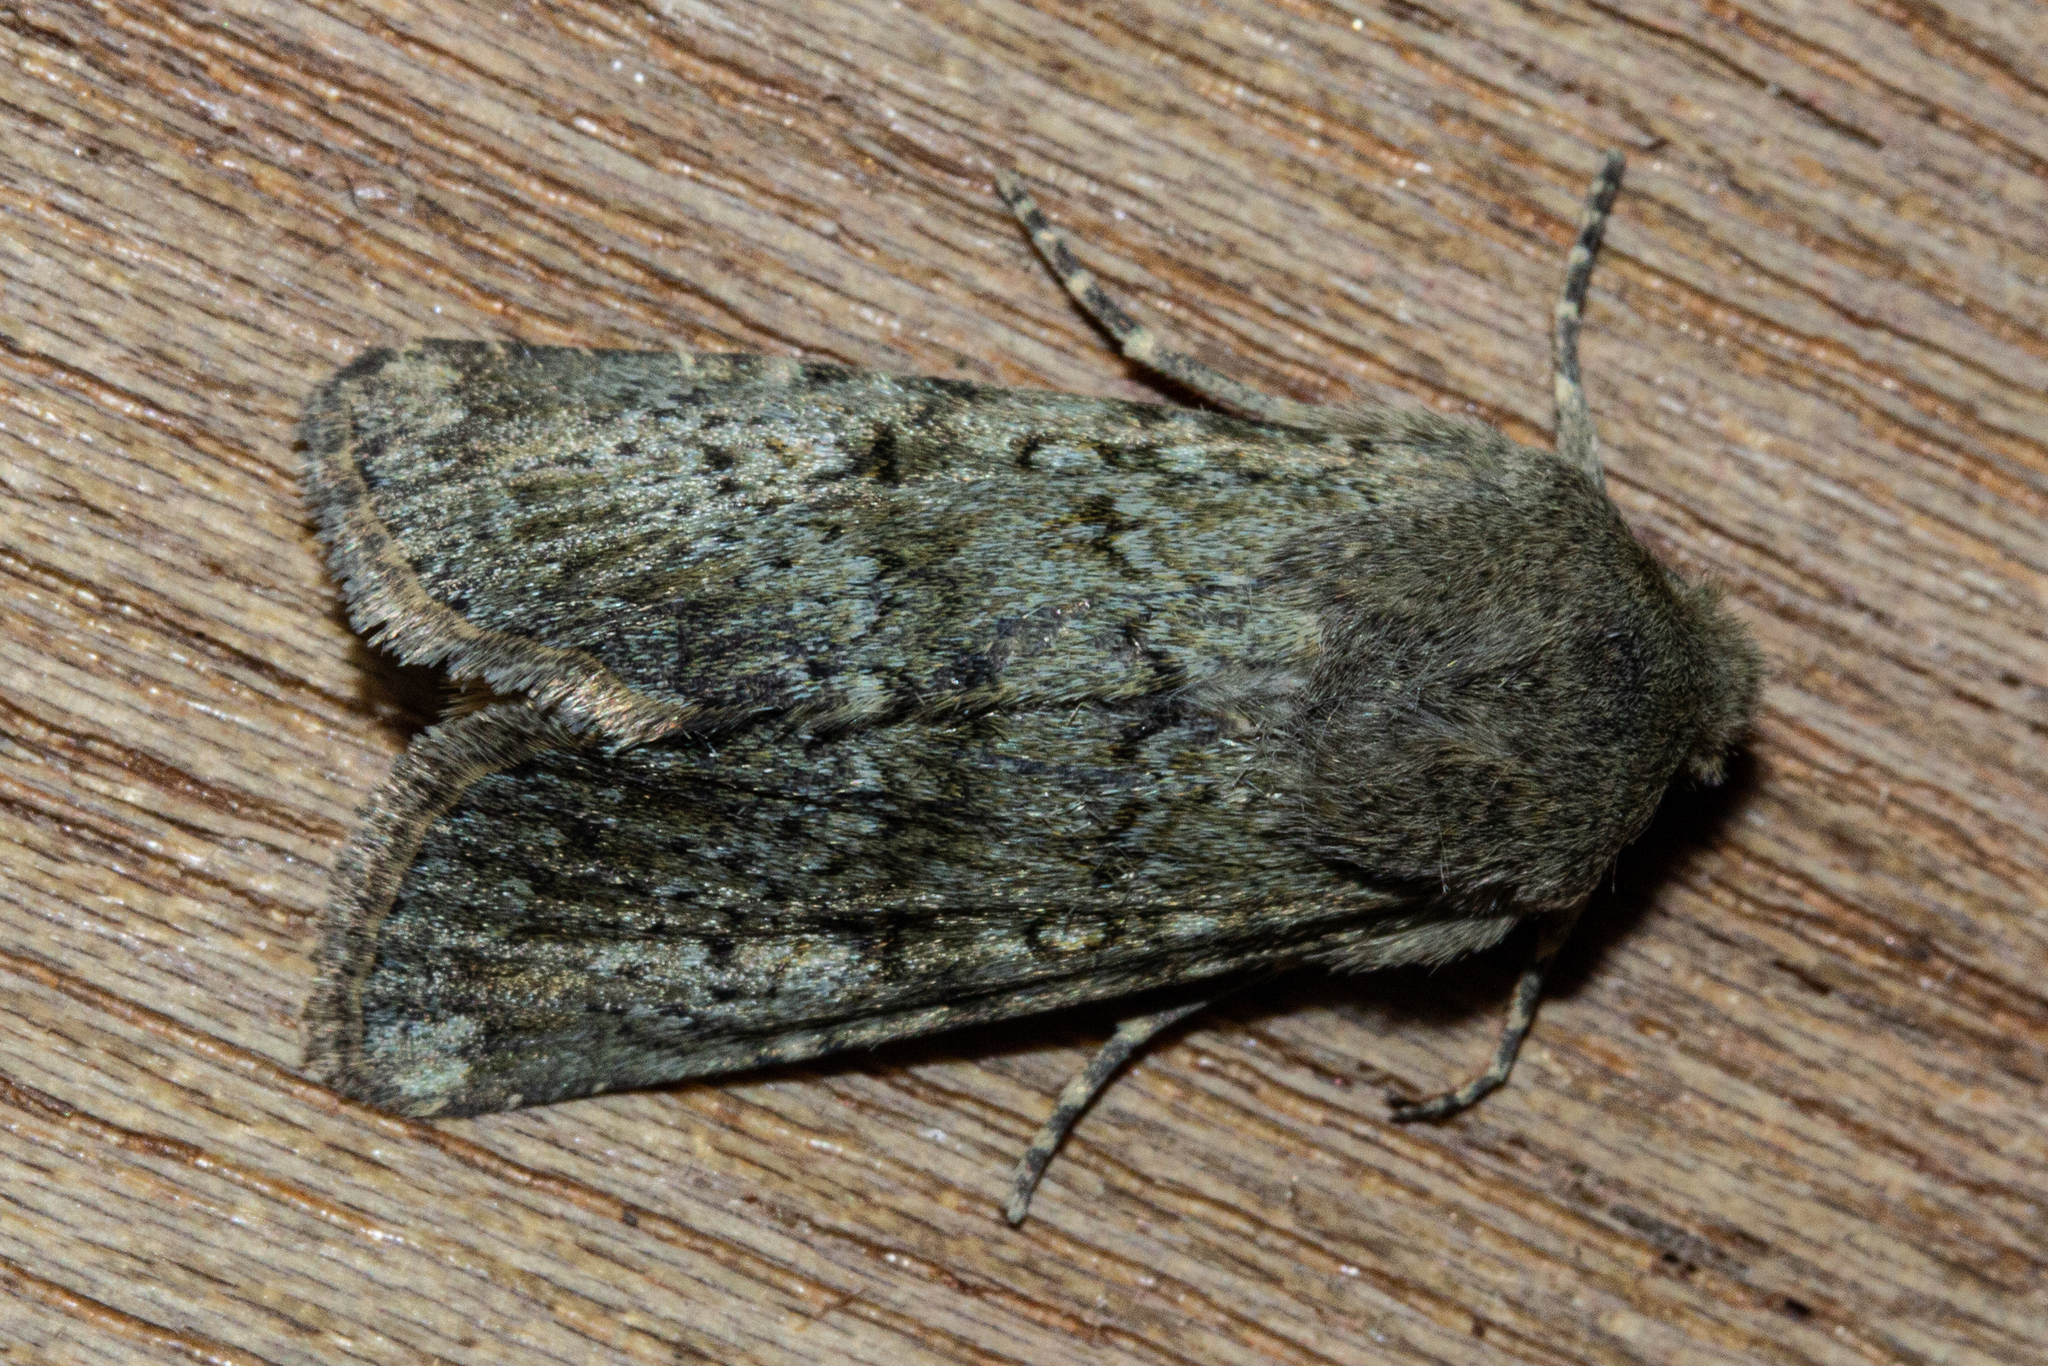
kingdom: Animalia
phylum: Arthropoda
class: Insecta
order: Lepidoptera
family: Noctuidae
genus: Ichneutica
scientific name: Ichneutica moderata
